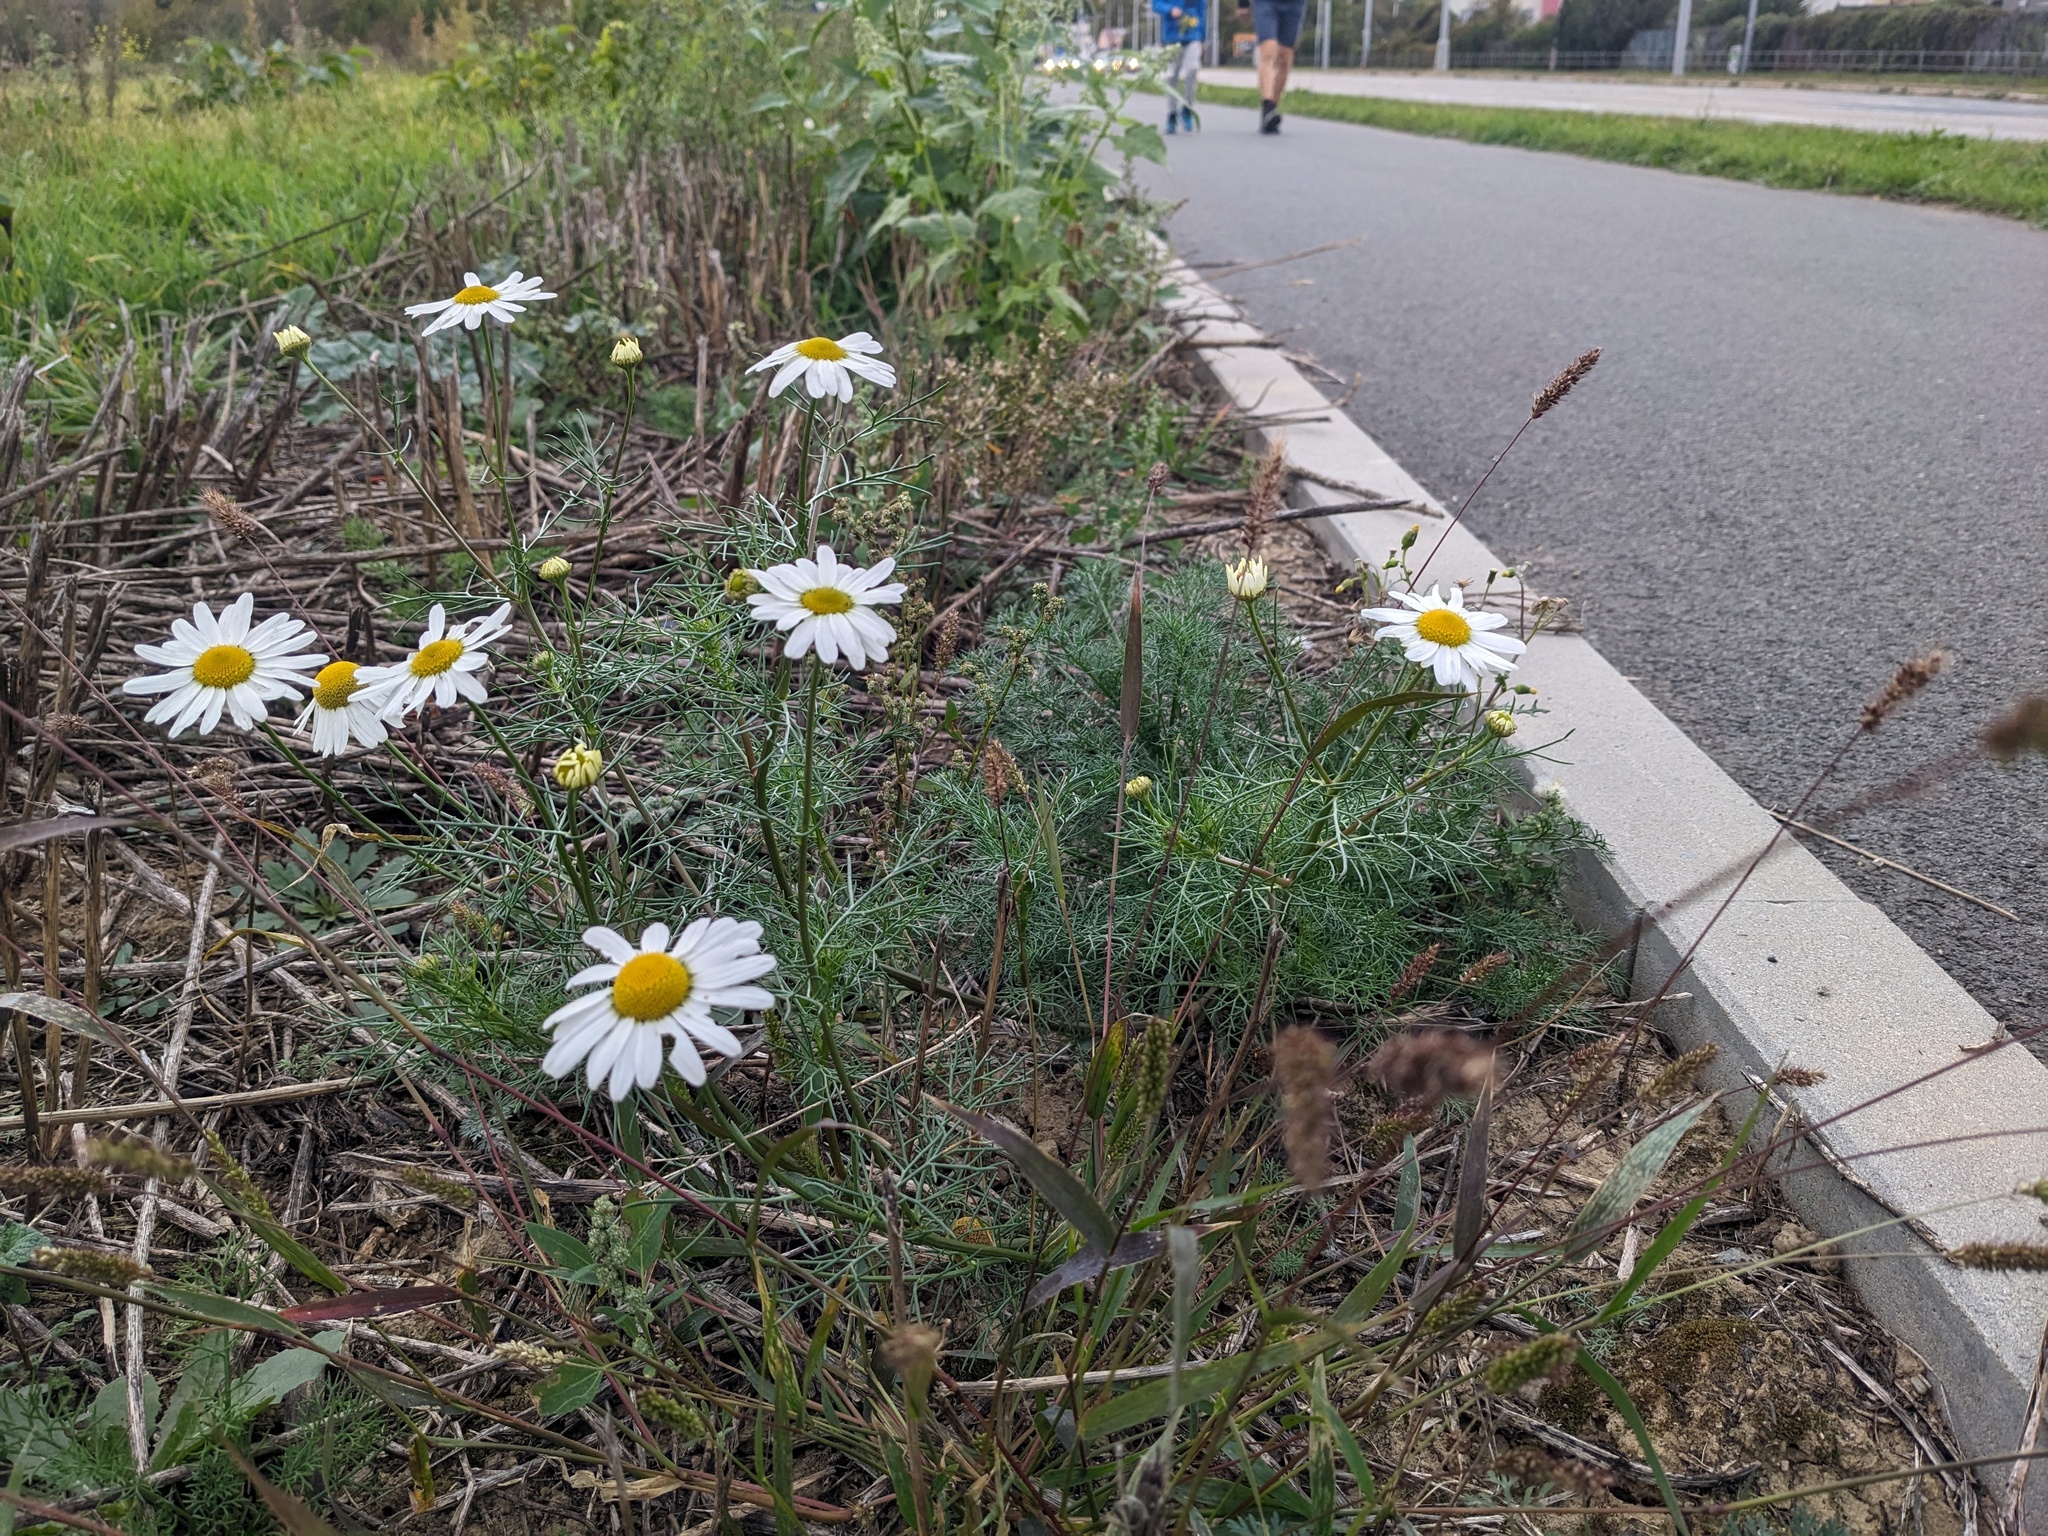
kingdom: Plantae
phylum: Tracheophyta
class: Magnoliopsida
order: Asterales
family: Asteraceae
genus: Tripleurospermum
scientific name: Tripleurospermum inodorum
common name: Scentless mayweed
